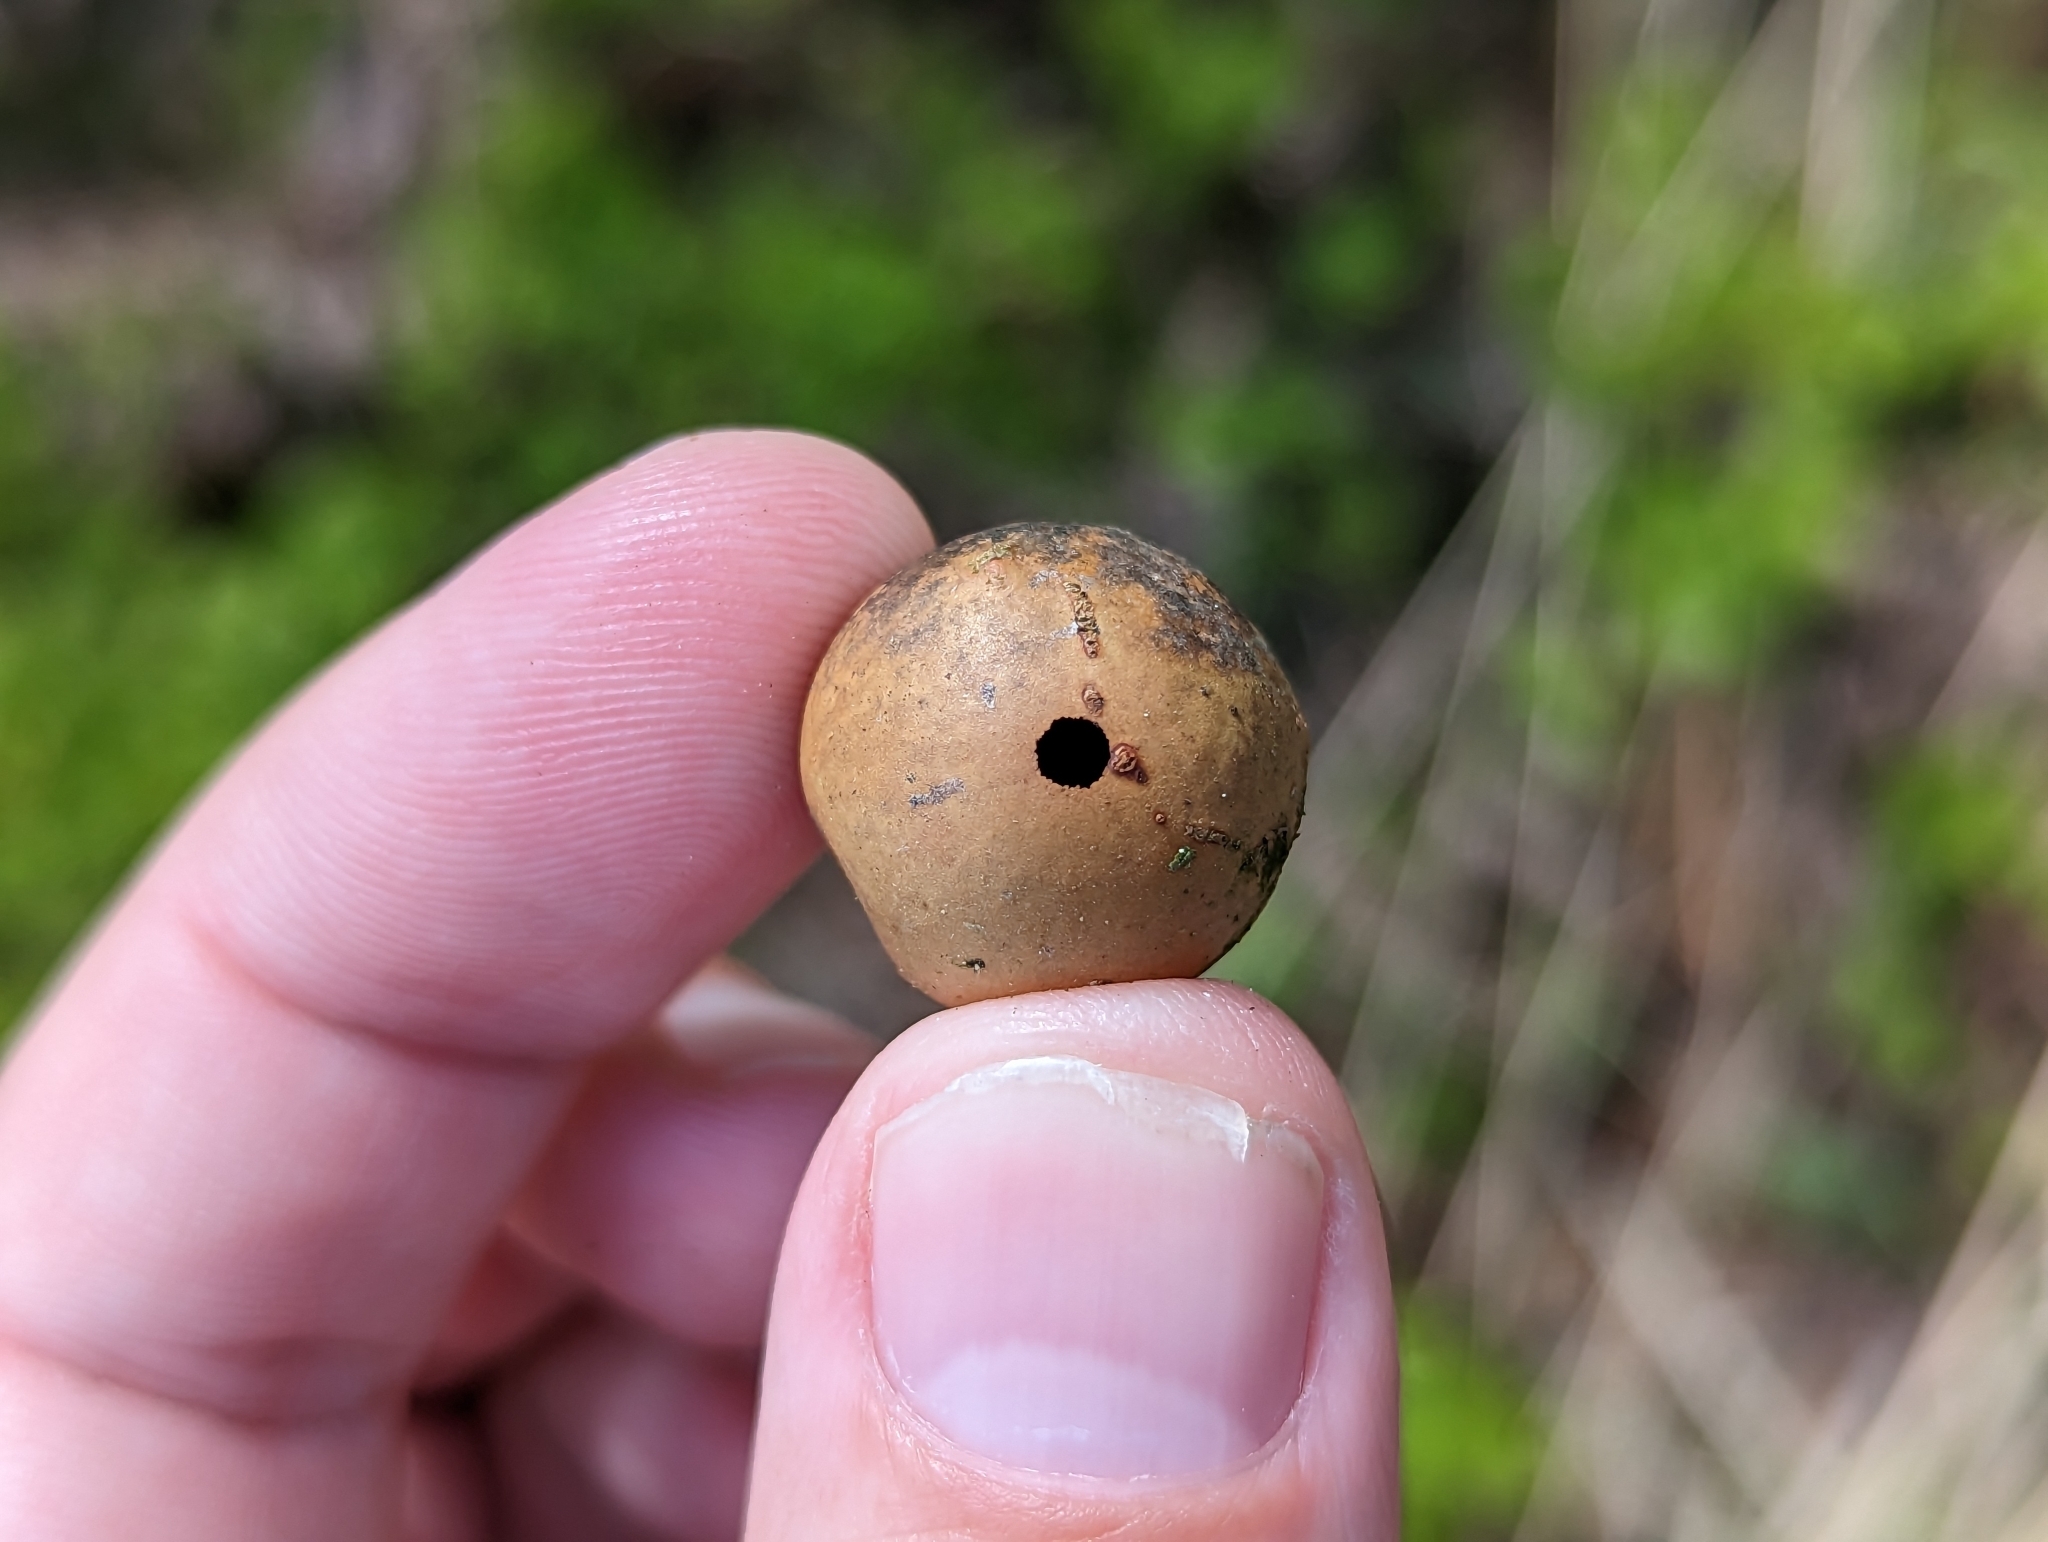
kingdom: Animalia
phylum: Arthropoda
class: Insecta
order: Hymenoptera
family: Cynipidae
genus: Andricus
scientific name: Andricus kollari
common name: Marble gall
